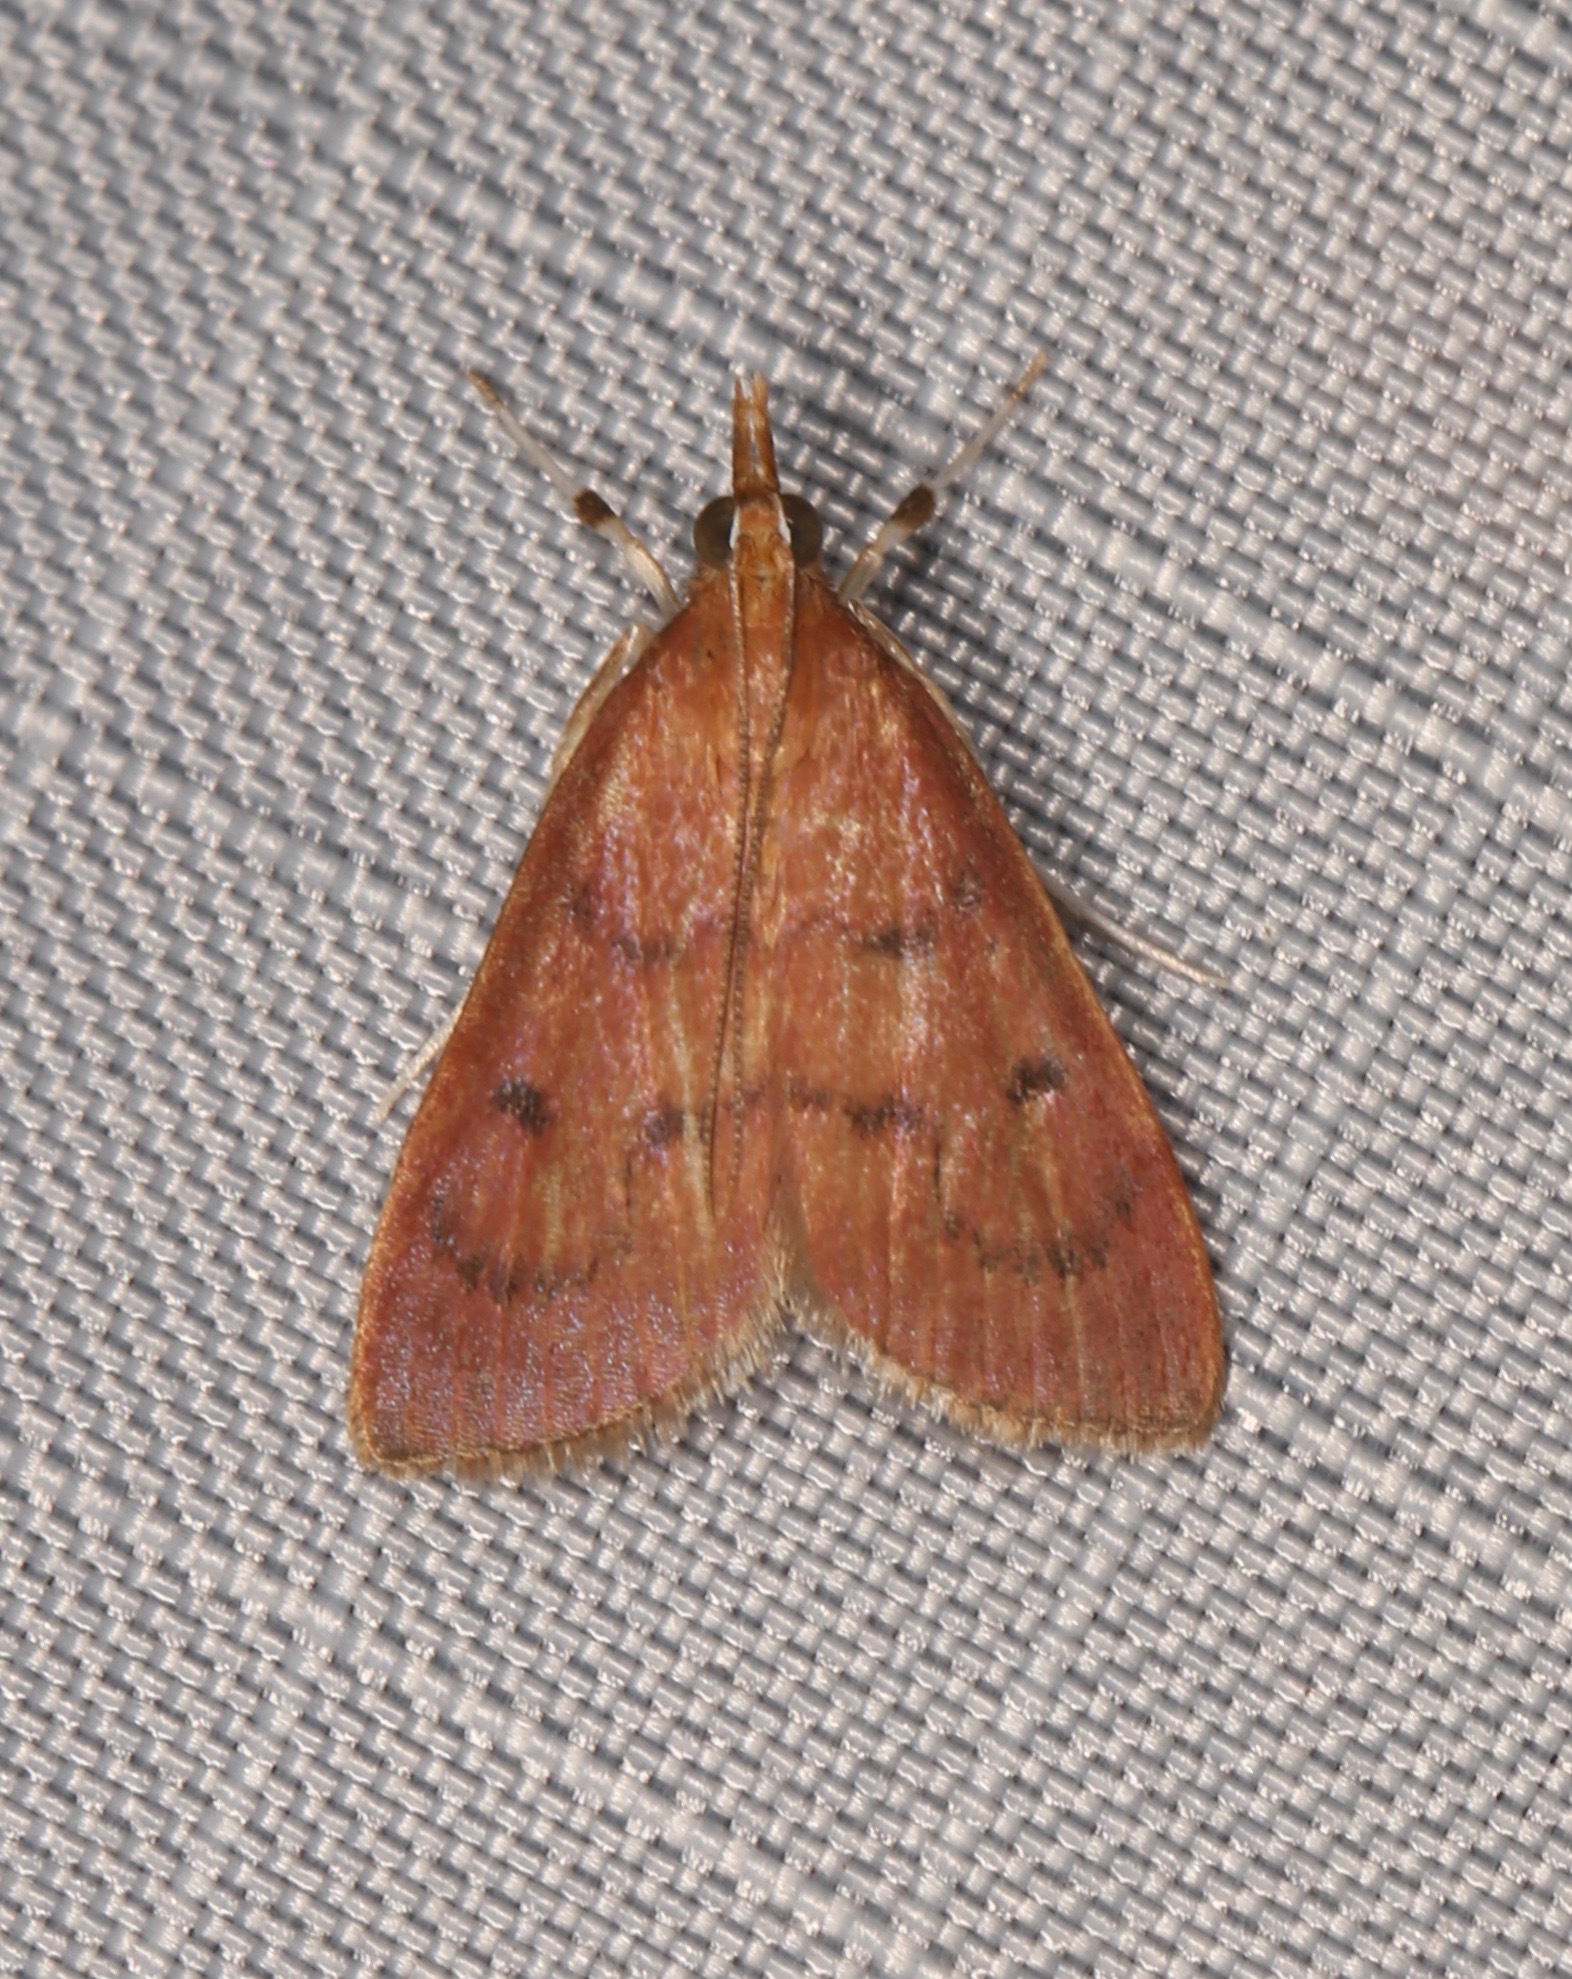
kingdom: Animalia
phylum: Arthropoda
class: Insecta
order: Lepidoptera
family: Crambidae
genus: Oenobotys
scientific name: Oenobotys vinotinctalis
